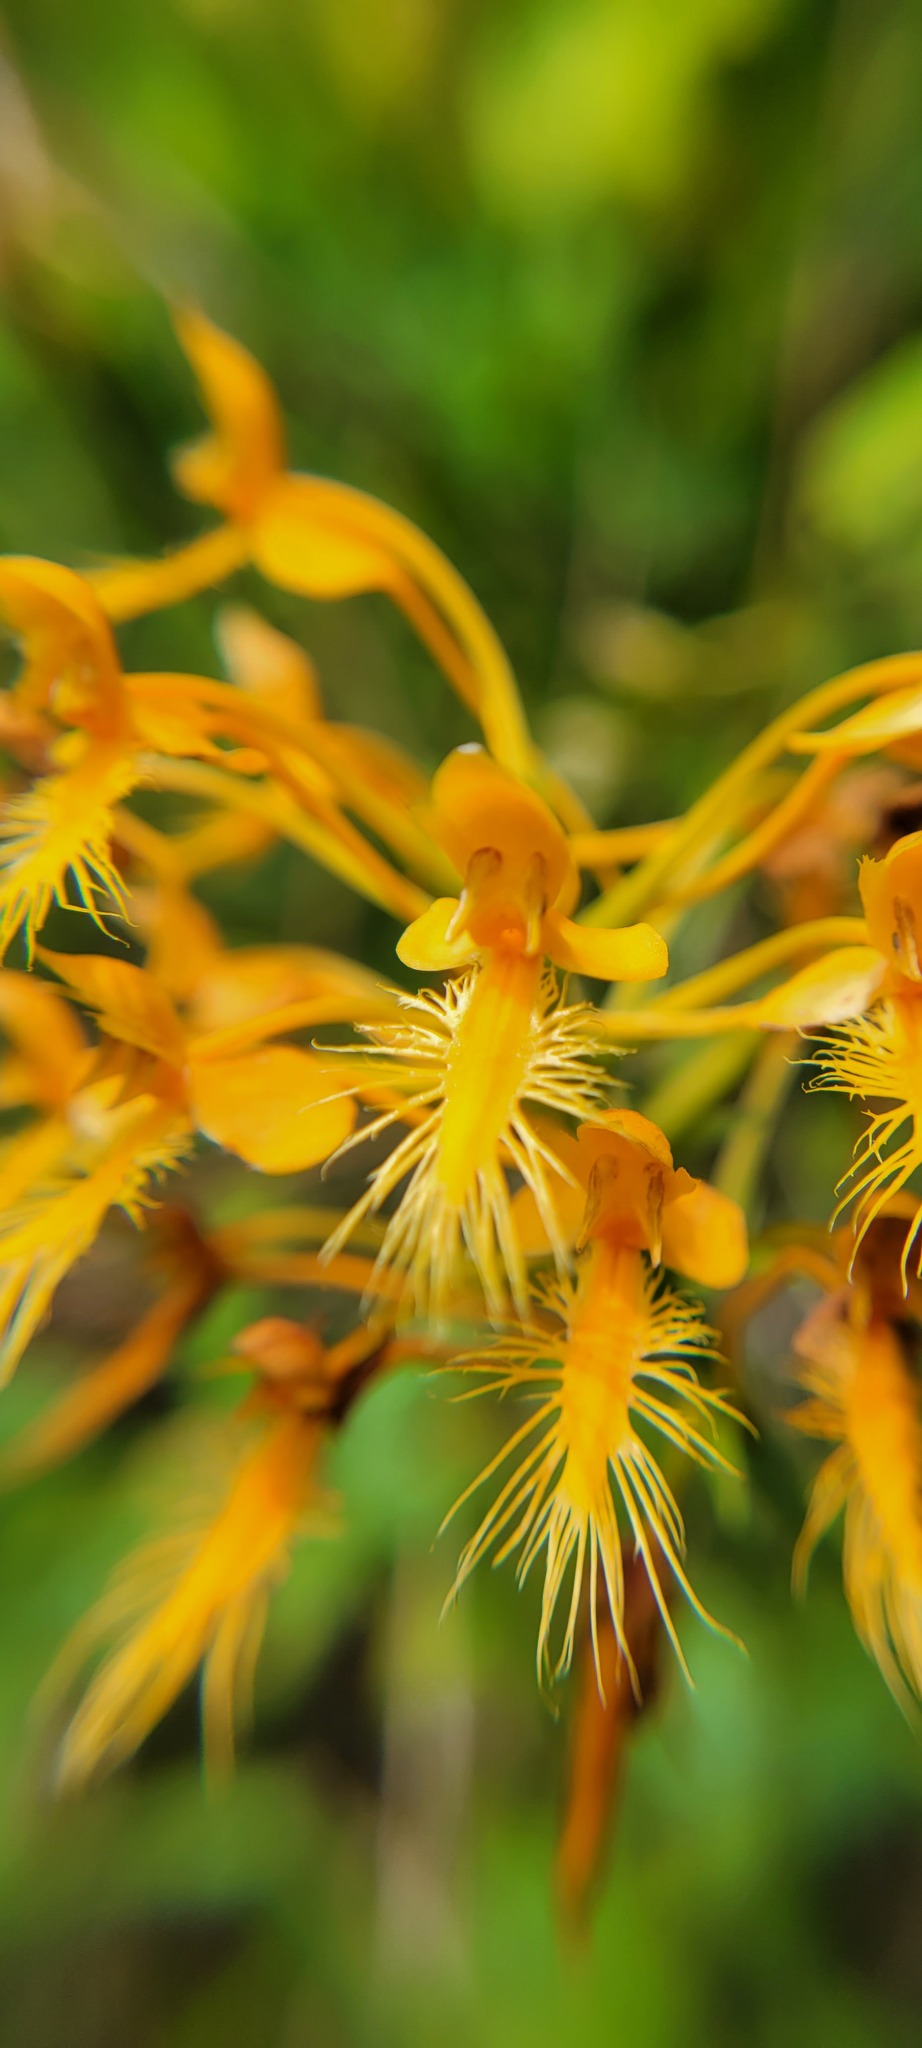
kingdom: Plantae
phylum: Tracheophyta
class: Liliopsida
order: Asparagales
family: Orchidaceae
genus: Platanthera
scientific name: Platanthera ciliaris
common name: Yellow fringed orchid
